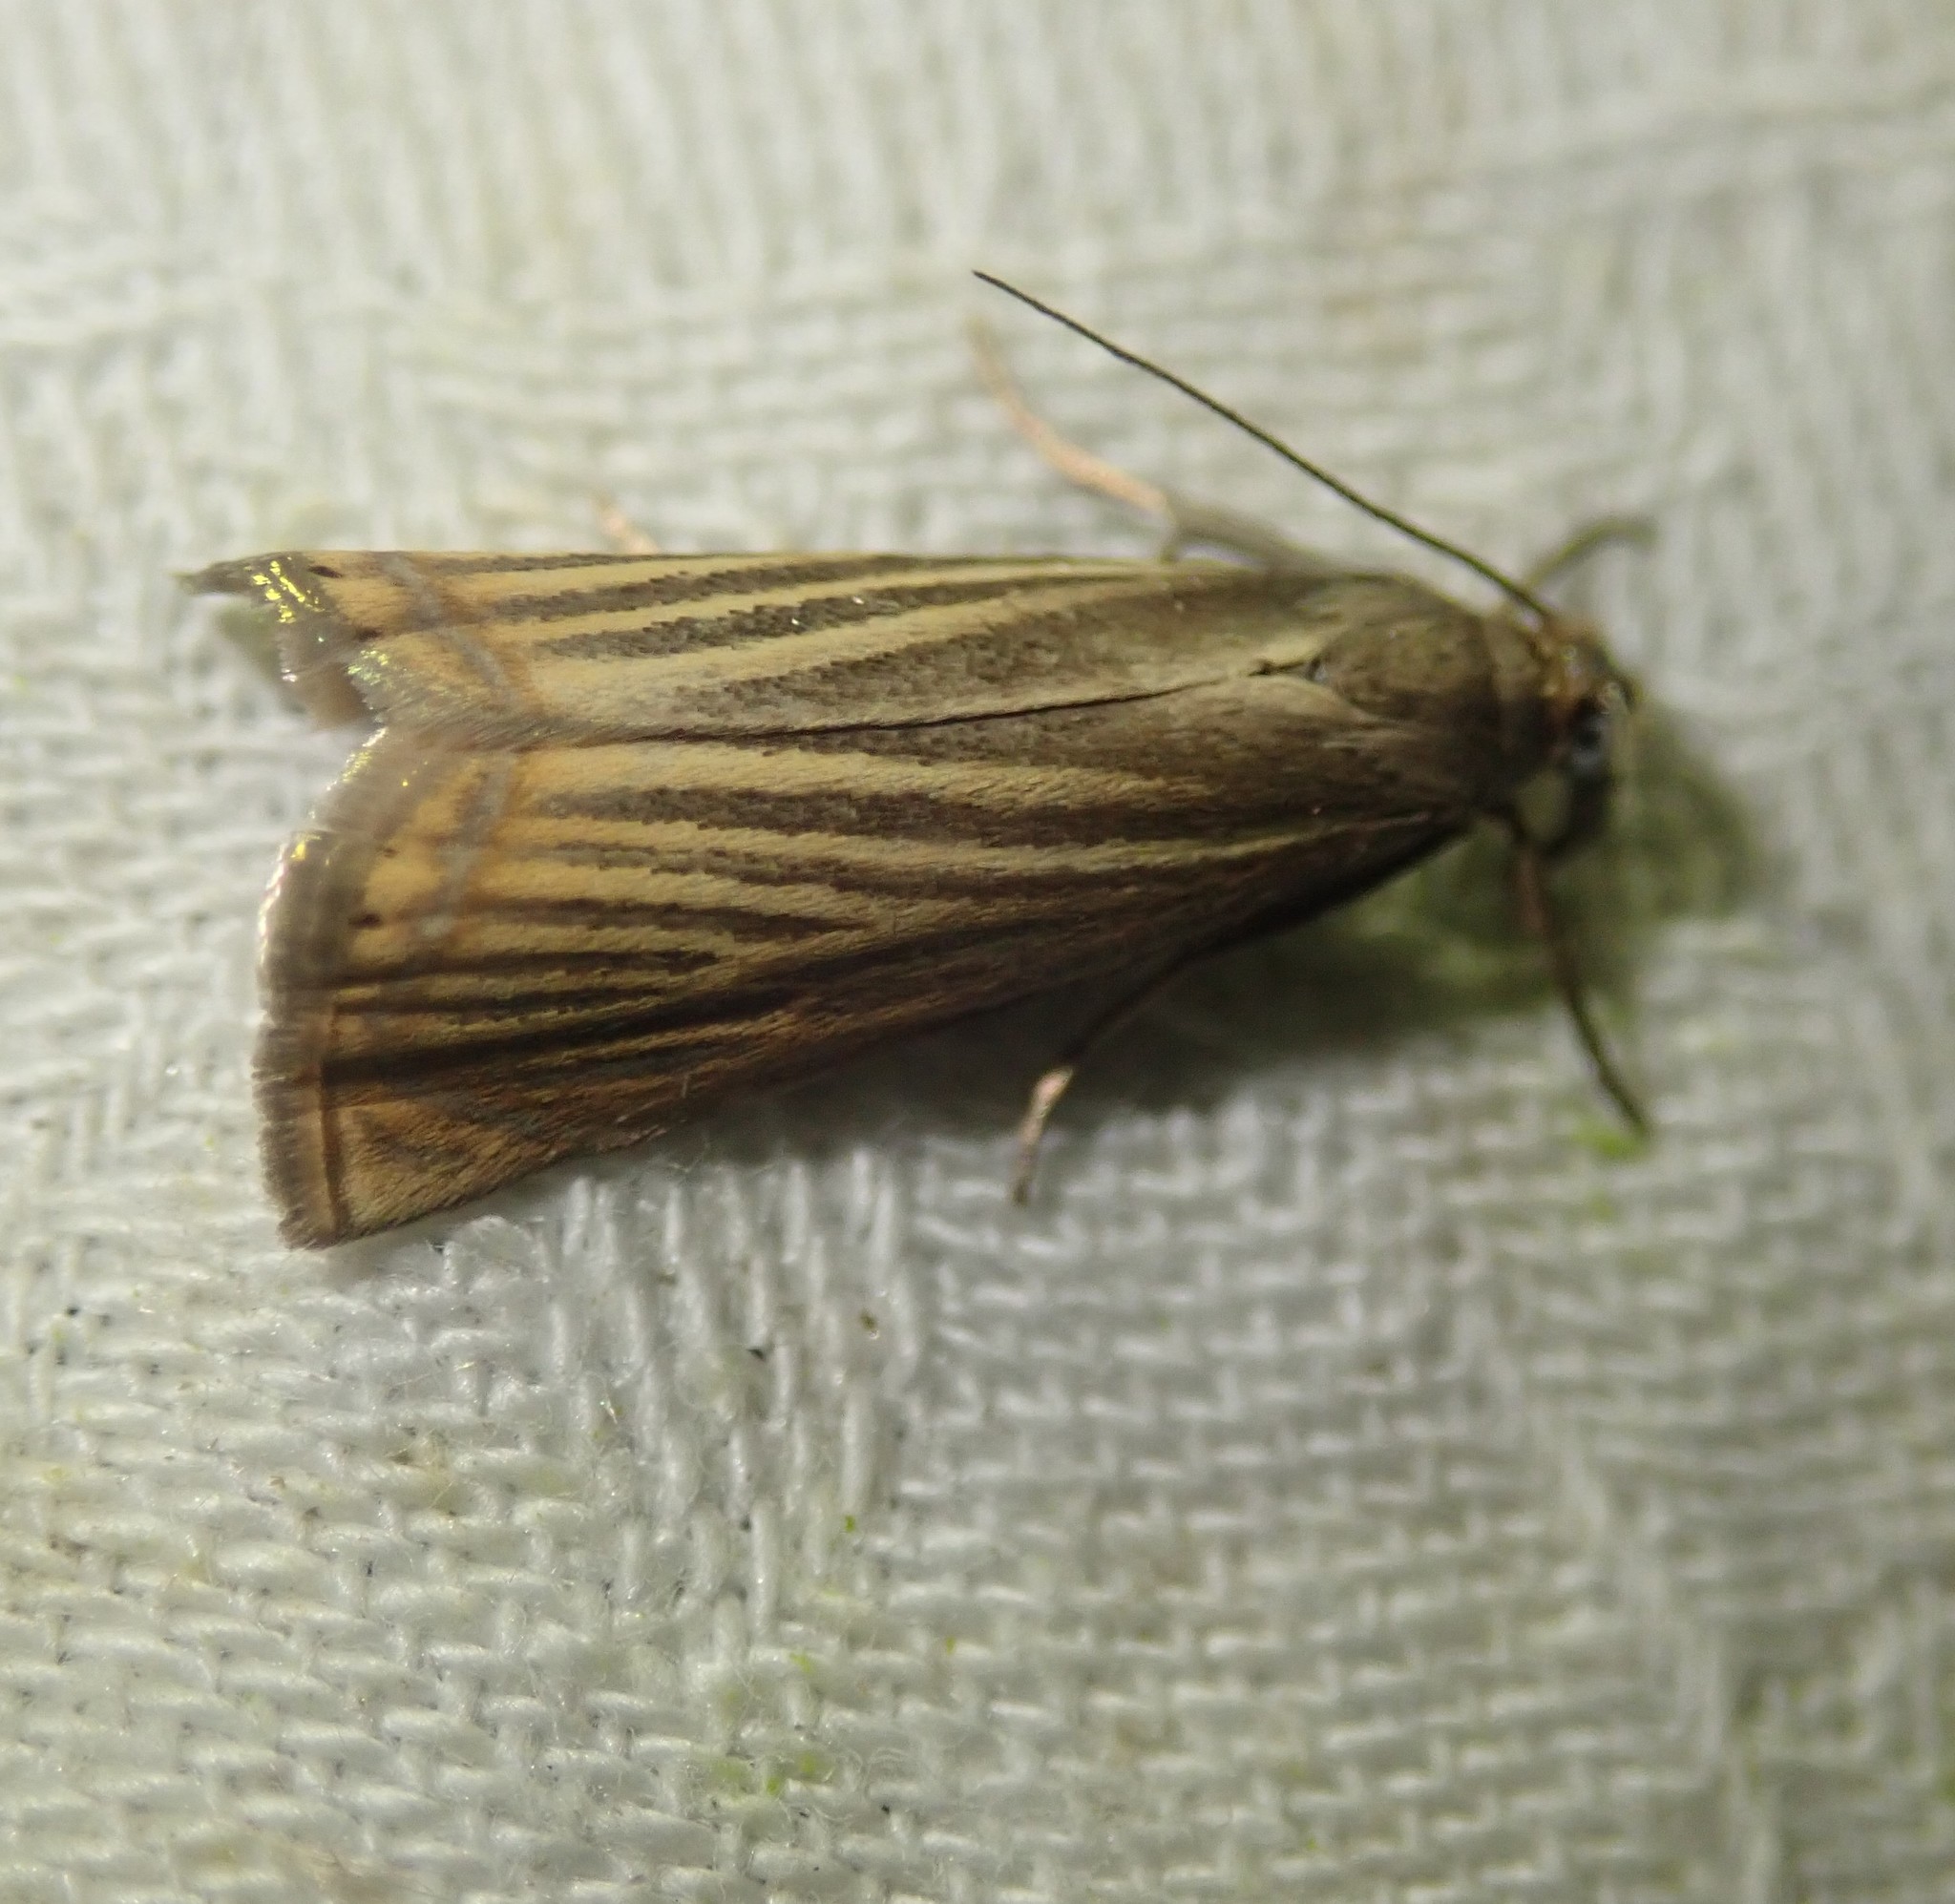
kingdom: Animalia
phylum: Arthropoda
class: Insecta
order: Lepidoptera
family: Crambidae
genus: Chrysoteuchia
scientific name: Chrysoteuchia culmella
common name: Garden grass-veneer
